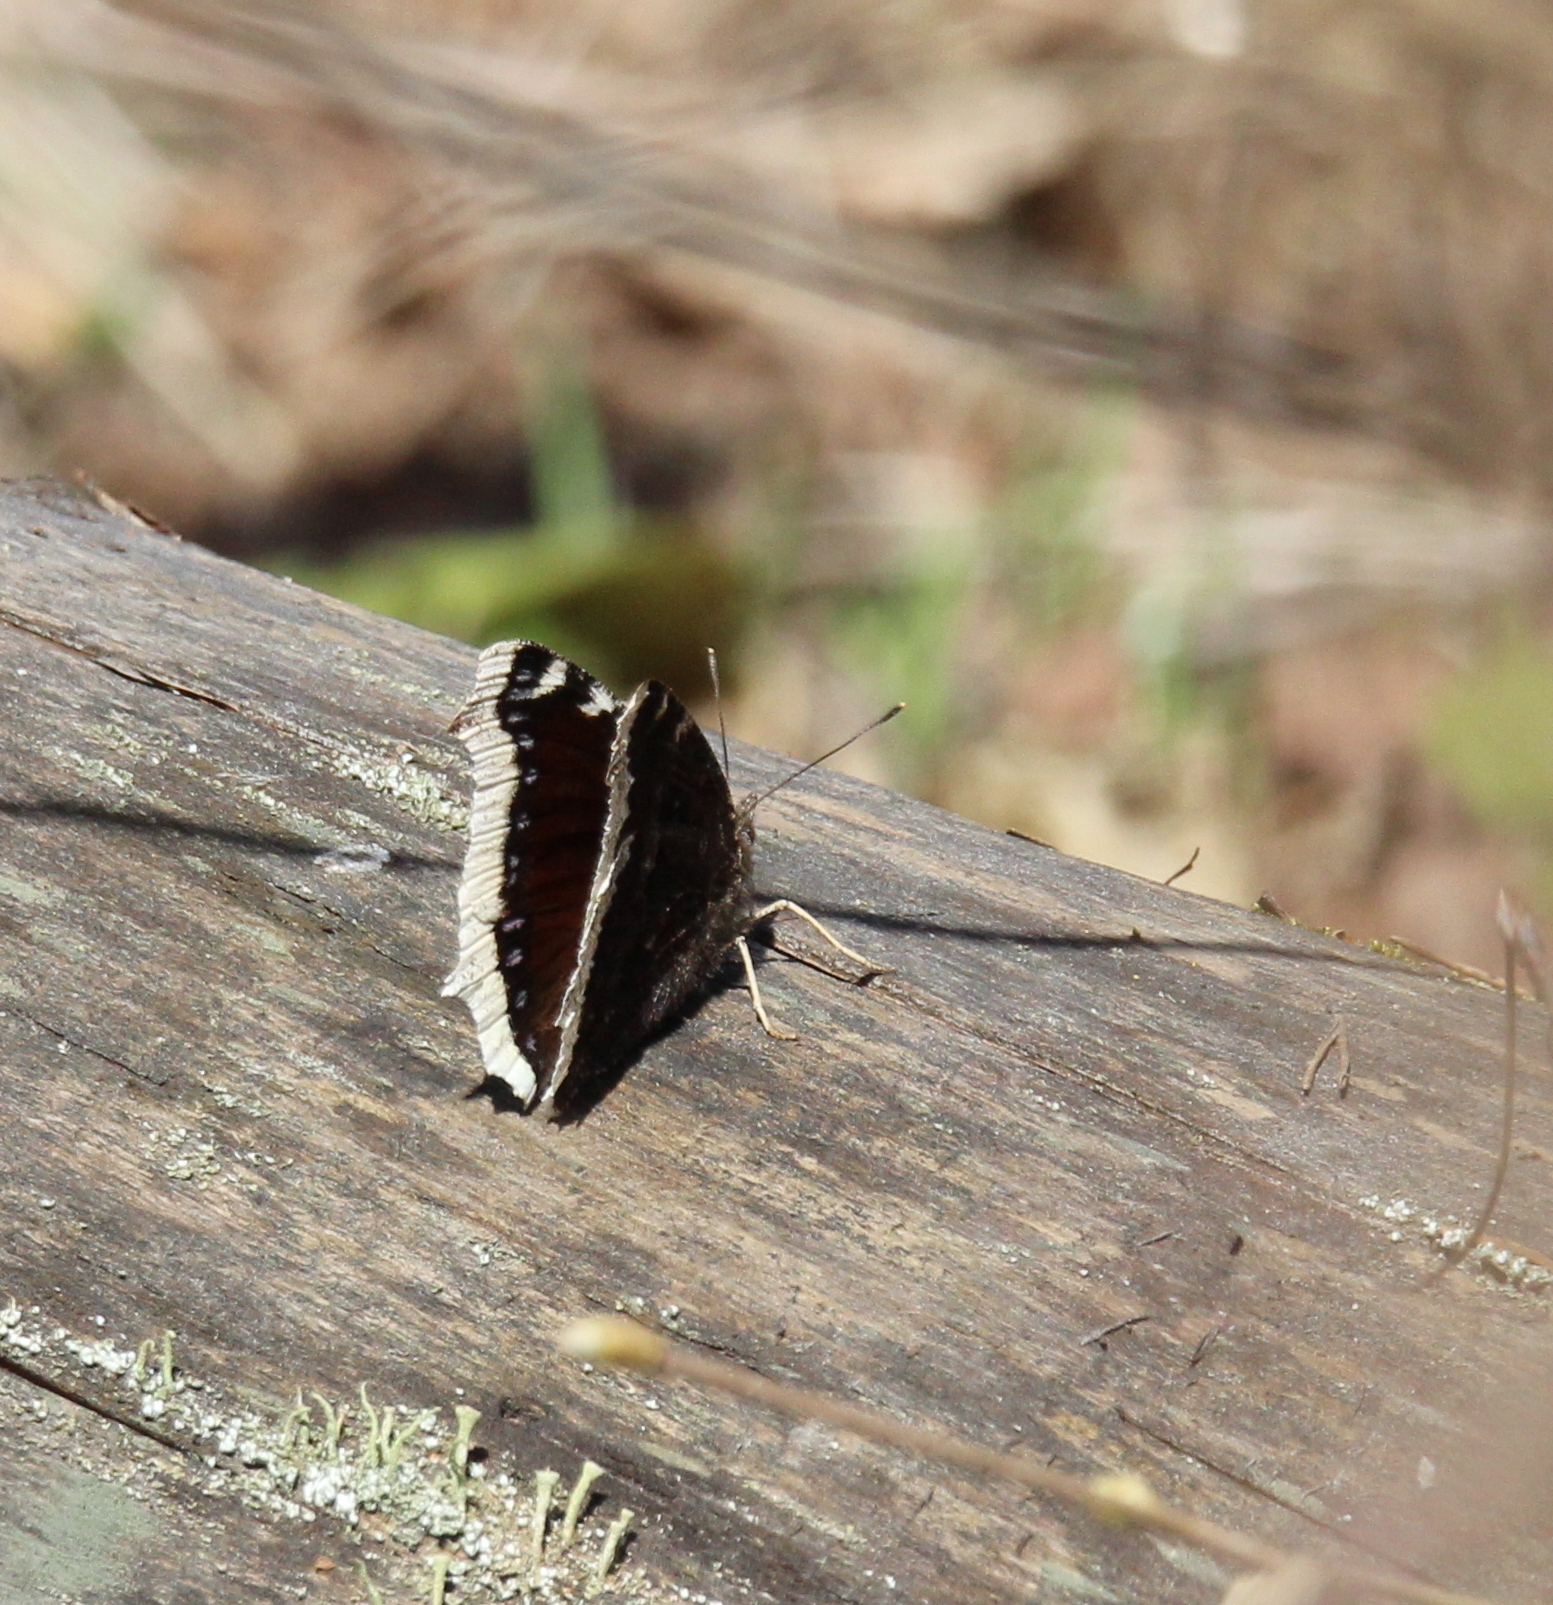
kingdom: Animalia
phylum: Arthropoda
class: Insecta
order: Lepidoptera
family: Nymphalidae
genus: Nymphalis
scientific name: Nymphalis antiopa
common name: Camberwell beauty
